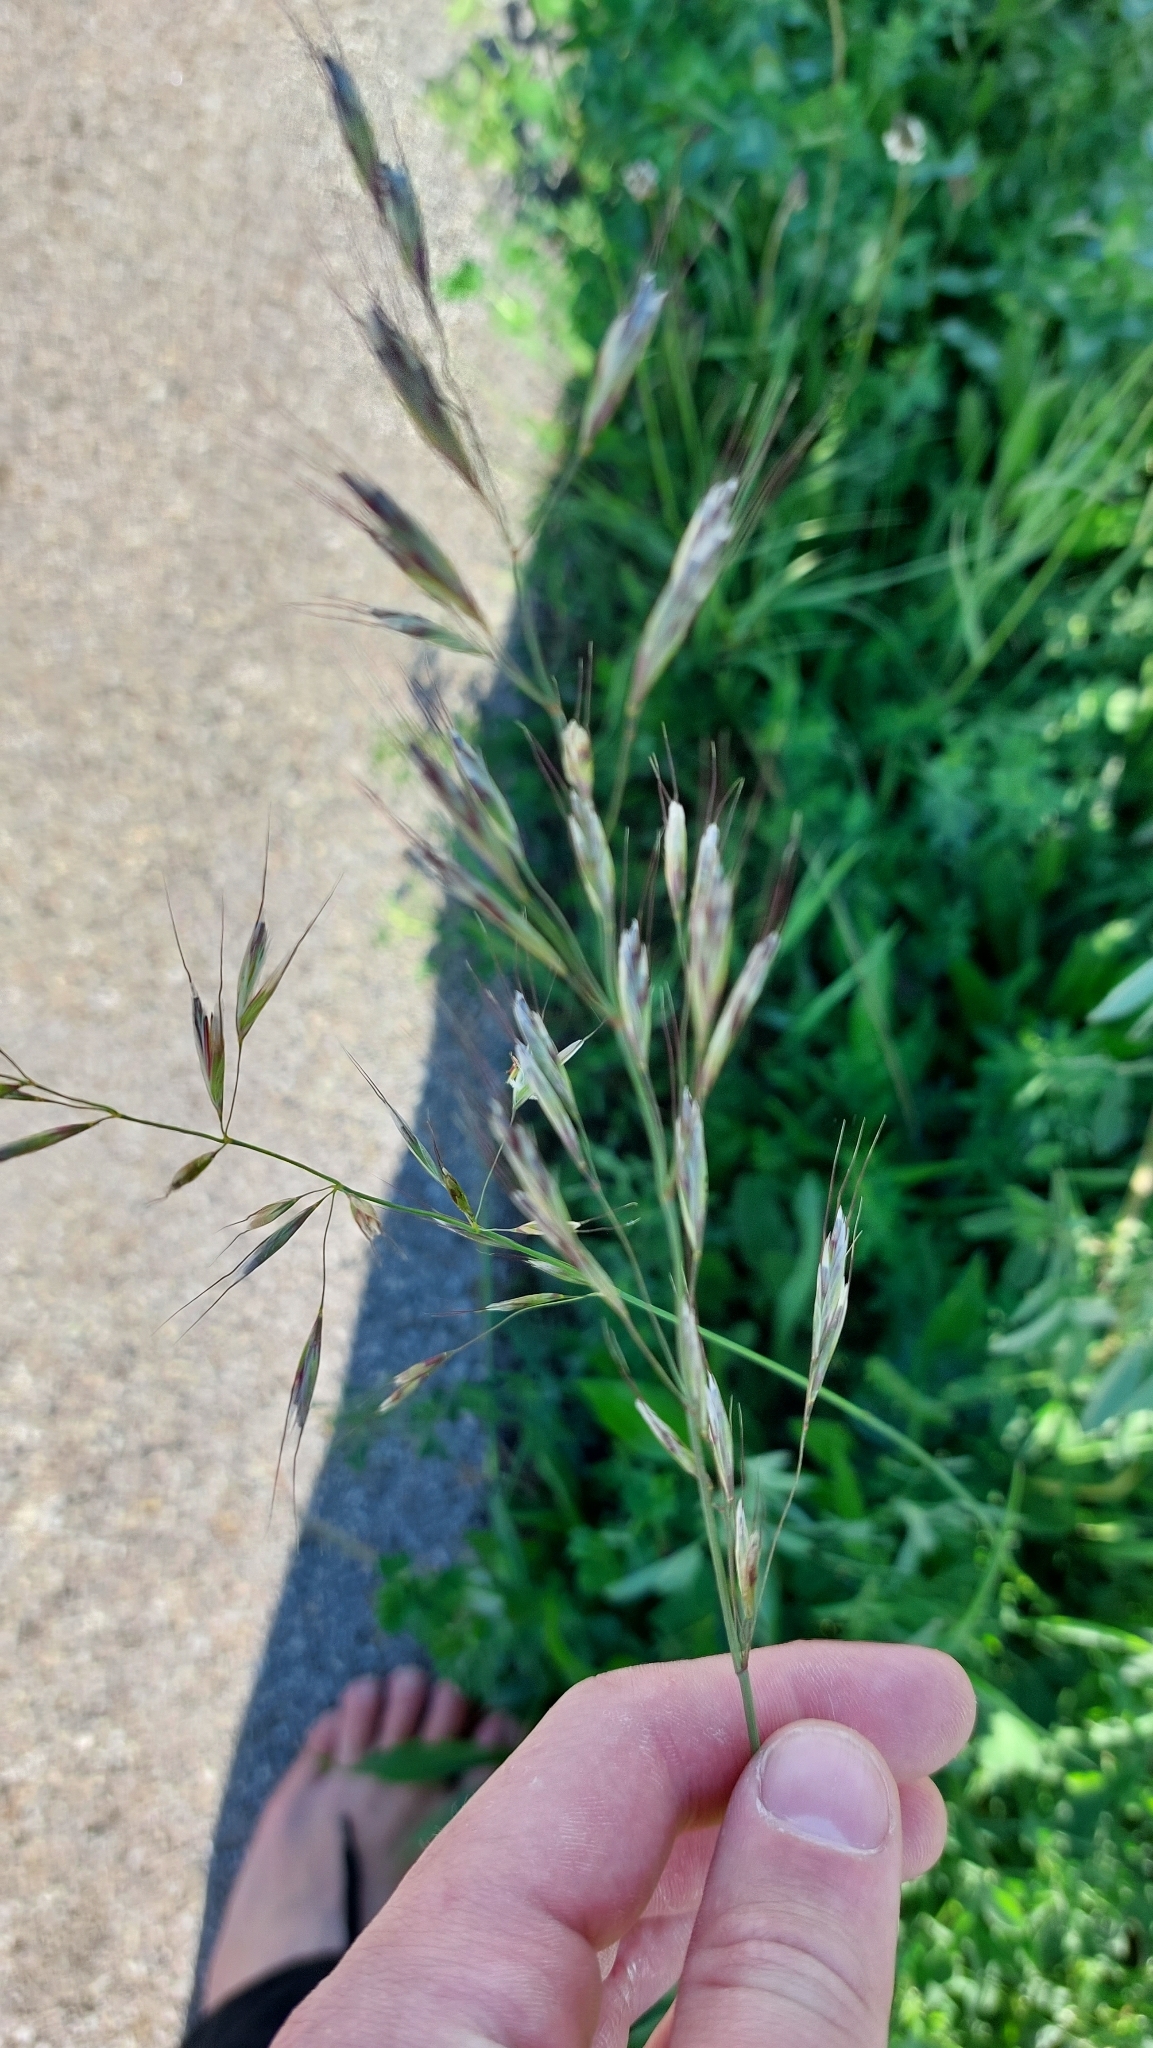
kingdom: Plantae
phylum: Tracheophyta
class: Liliopsida
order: Poales
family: Poaceae
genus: Avenula
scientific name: Avenula pubescens
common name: Downy alpine oatgrass
